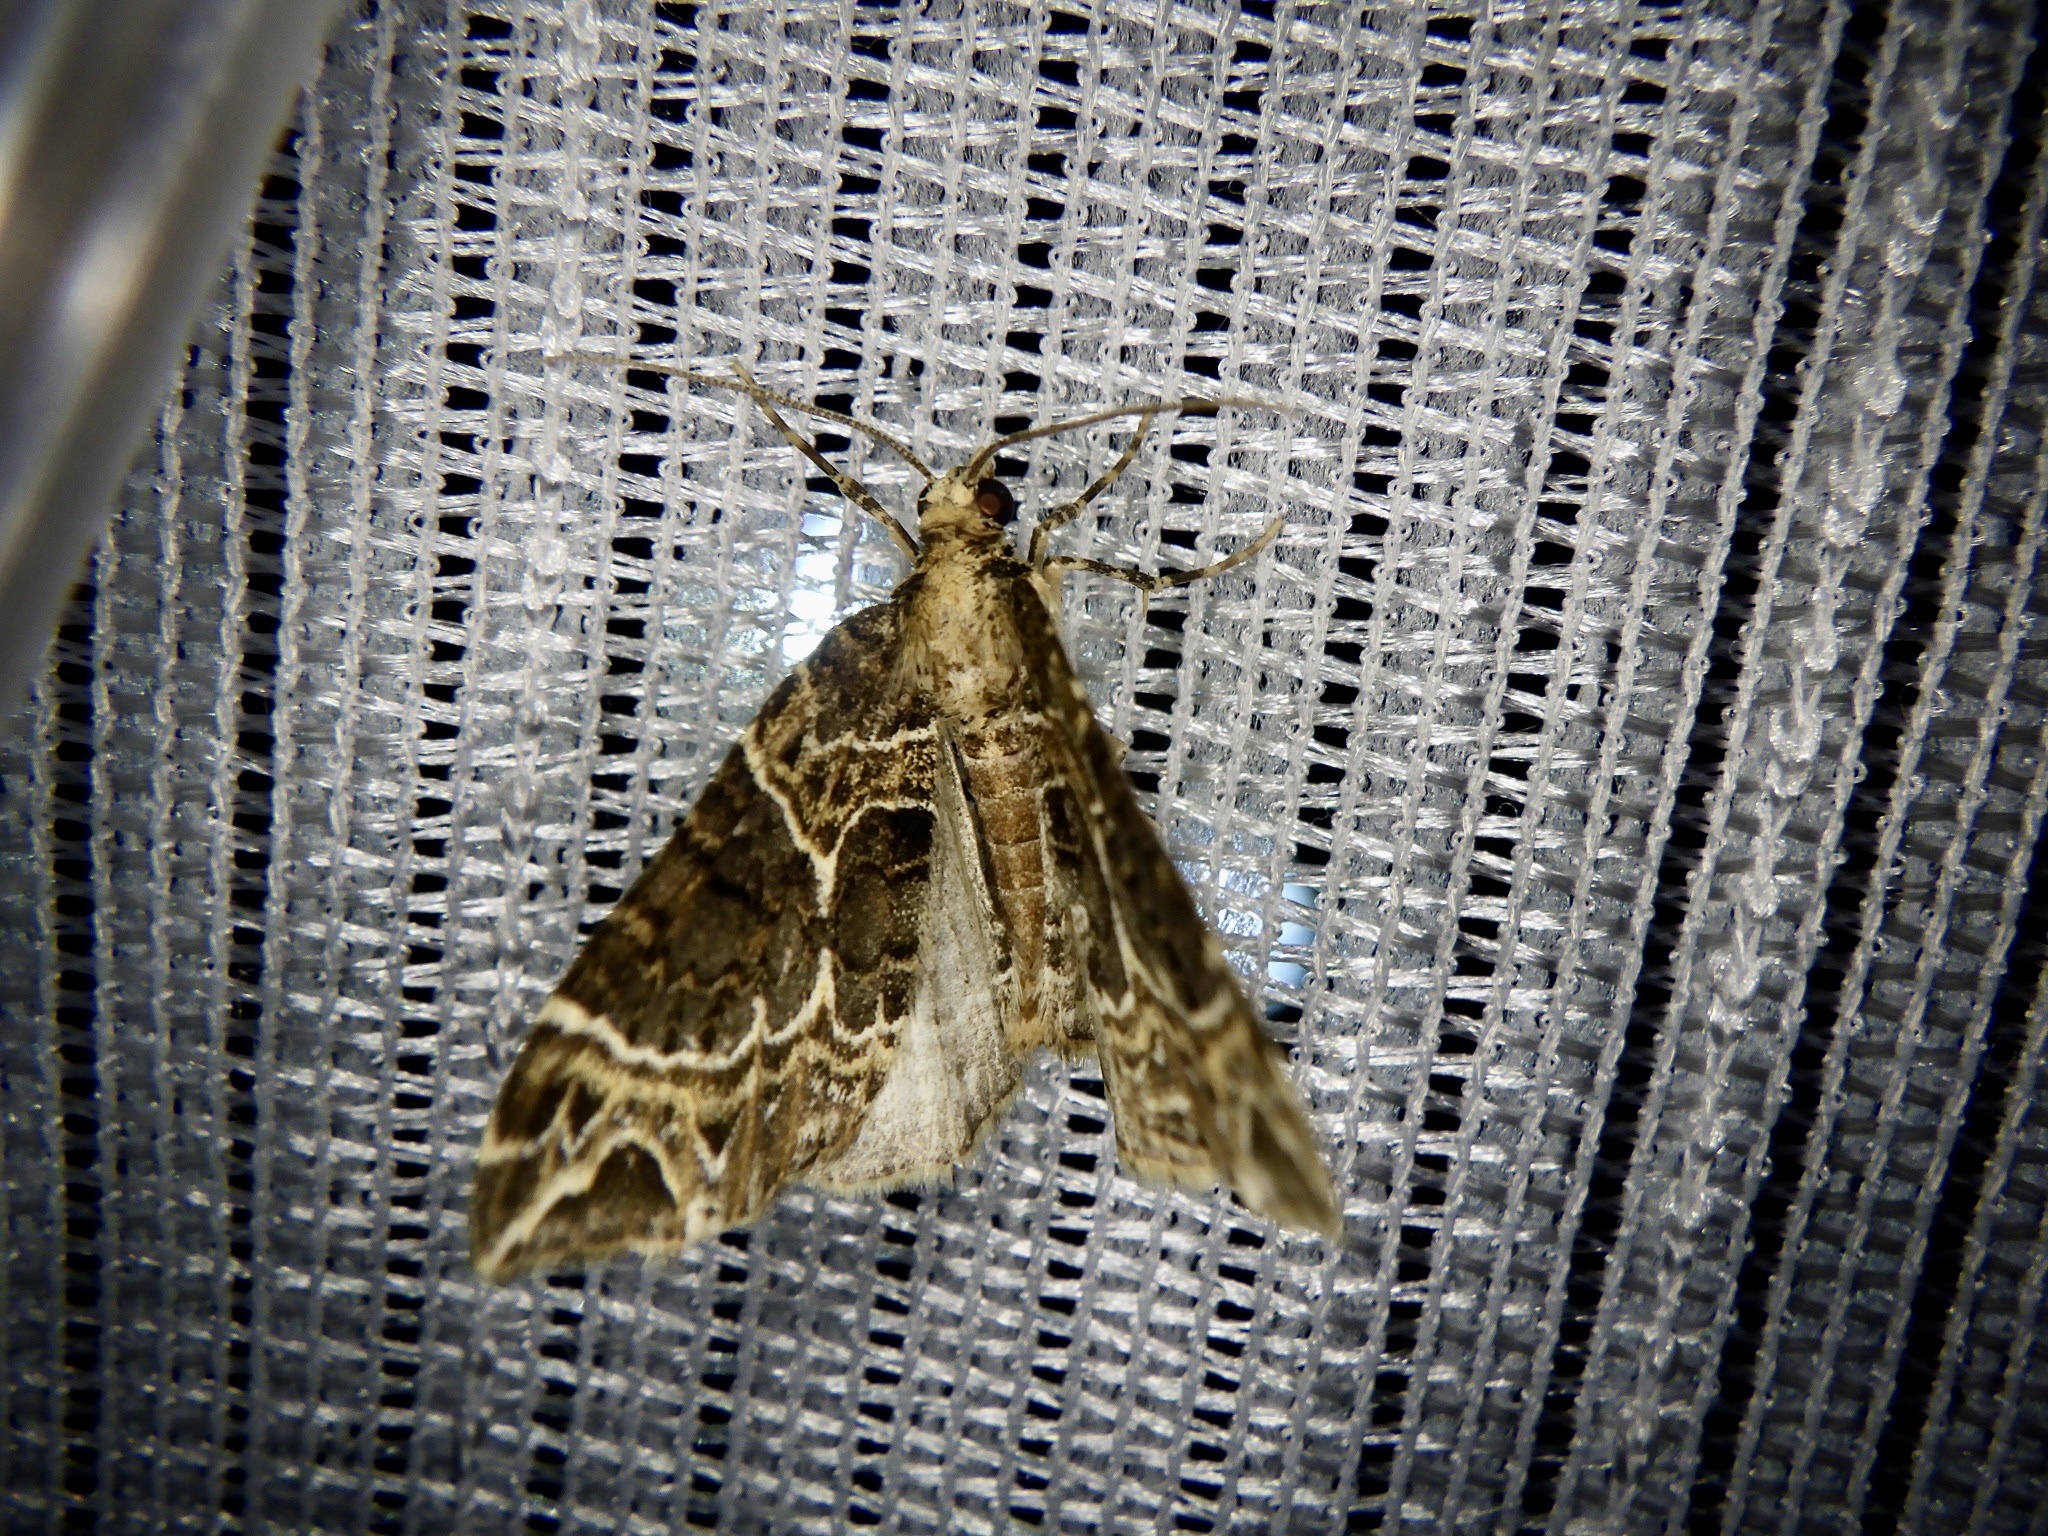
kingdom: Animalia
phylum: Arthropoda
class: Insecta
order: Lepidoptera
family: Geometridae
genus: Ecliptopera
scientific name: Ecliptopera umbrosaria
